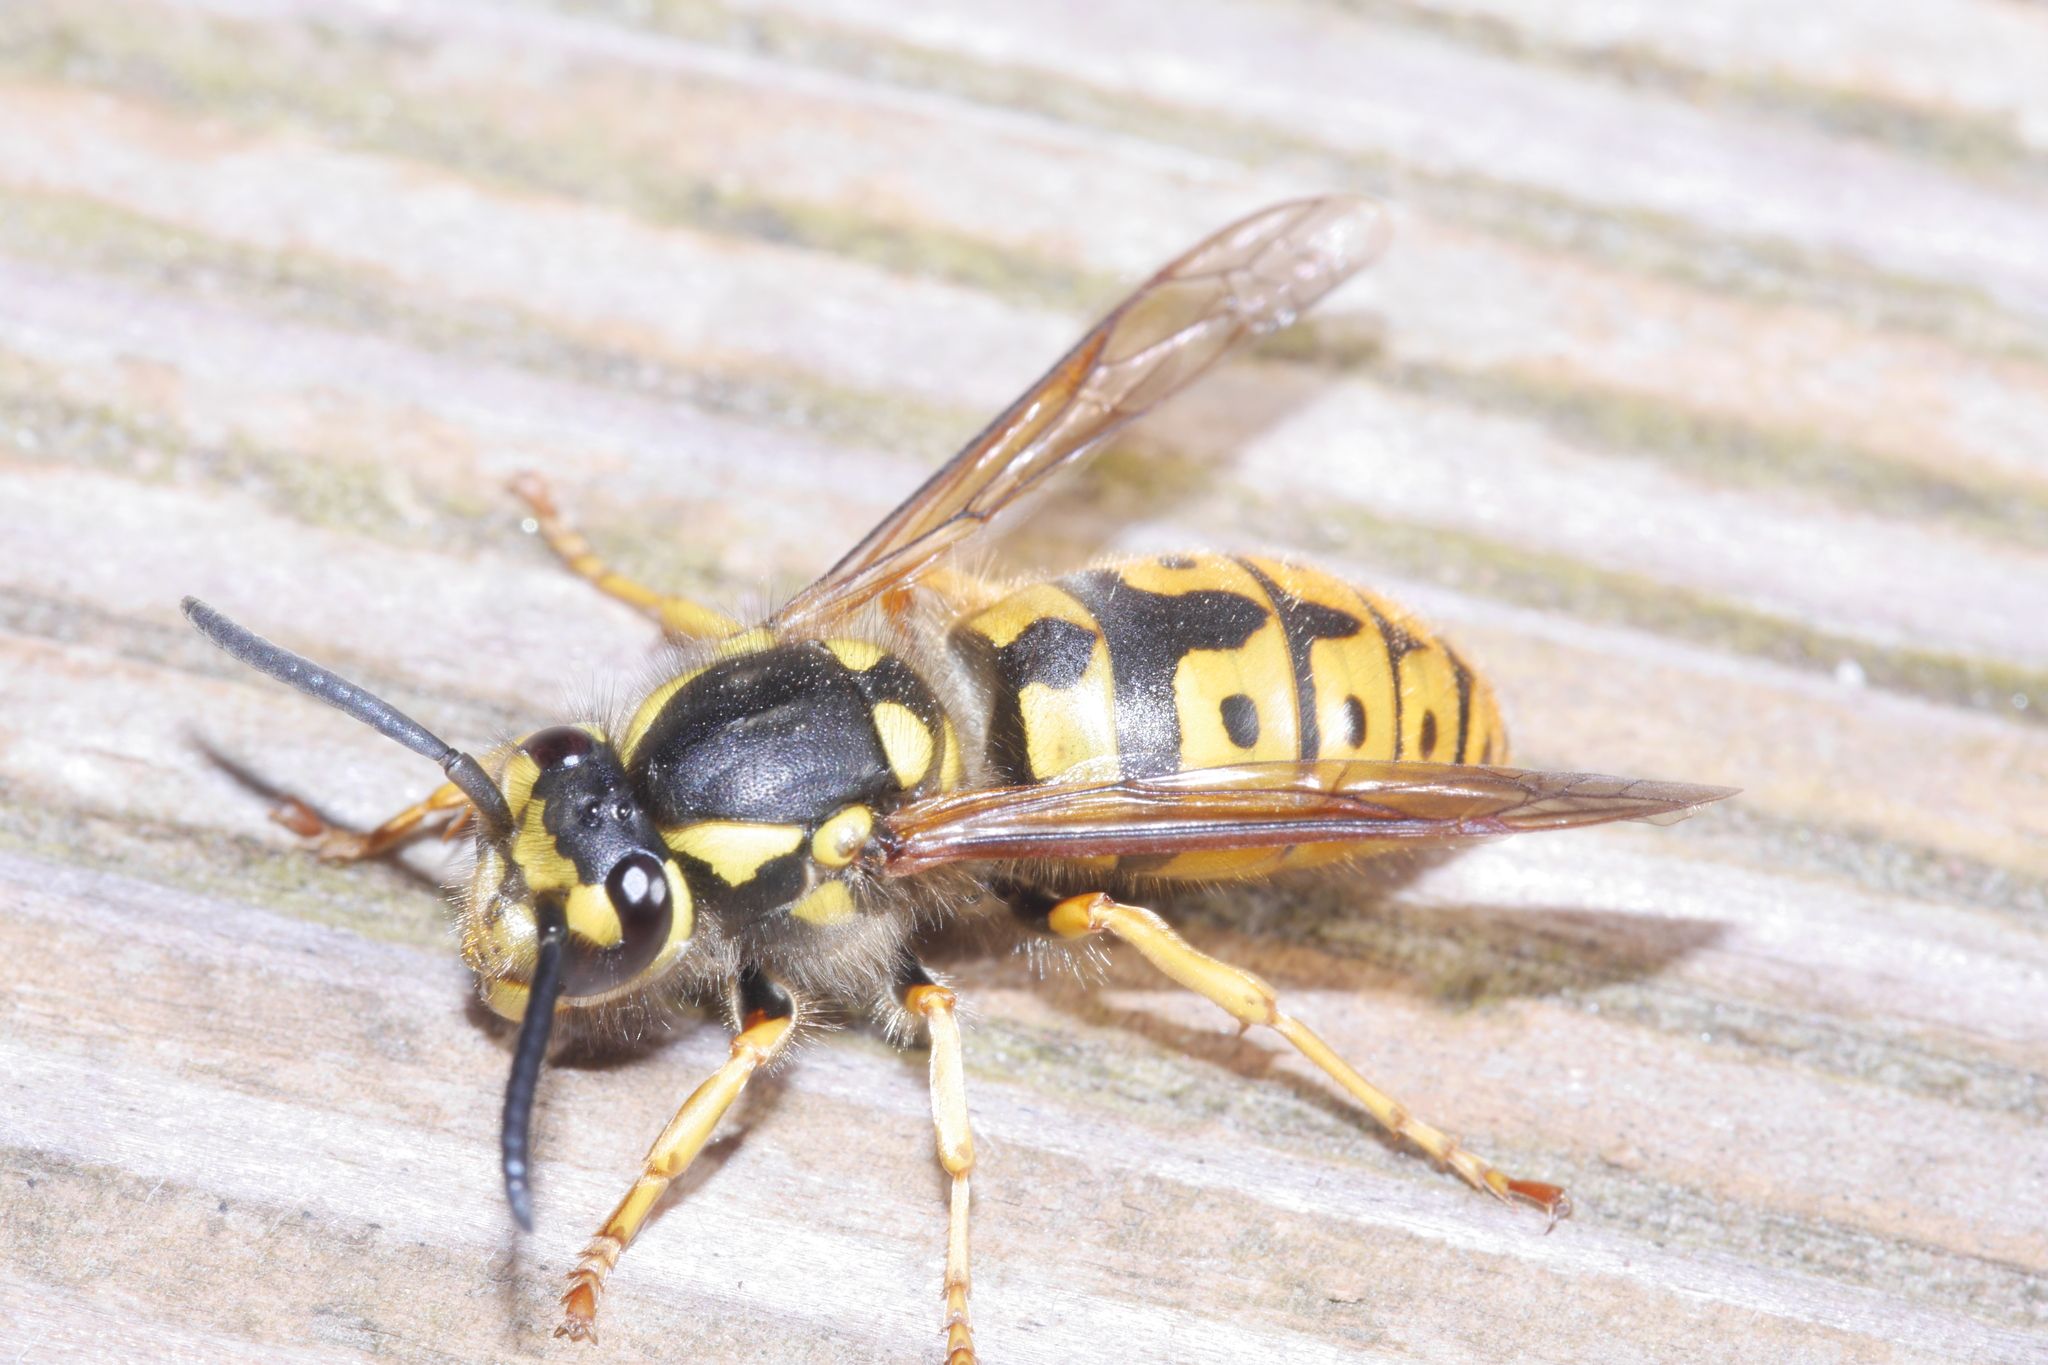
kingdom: Animalia
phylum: Arthropoda
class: Insecta
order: Hymenoptera
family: Vespidae
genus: Vespula
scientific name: Vespula germanica
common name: German wasp
